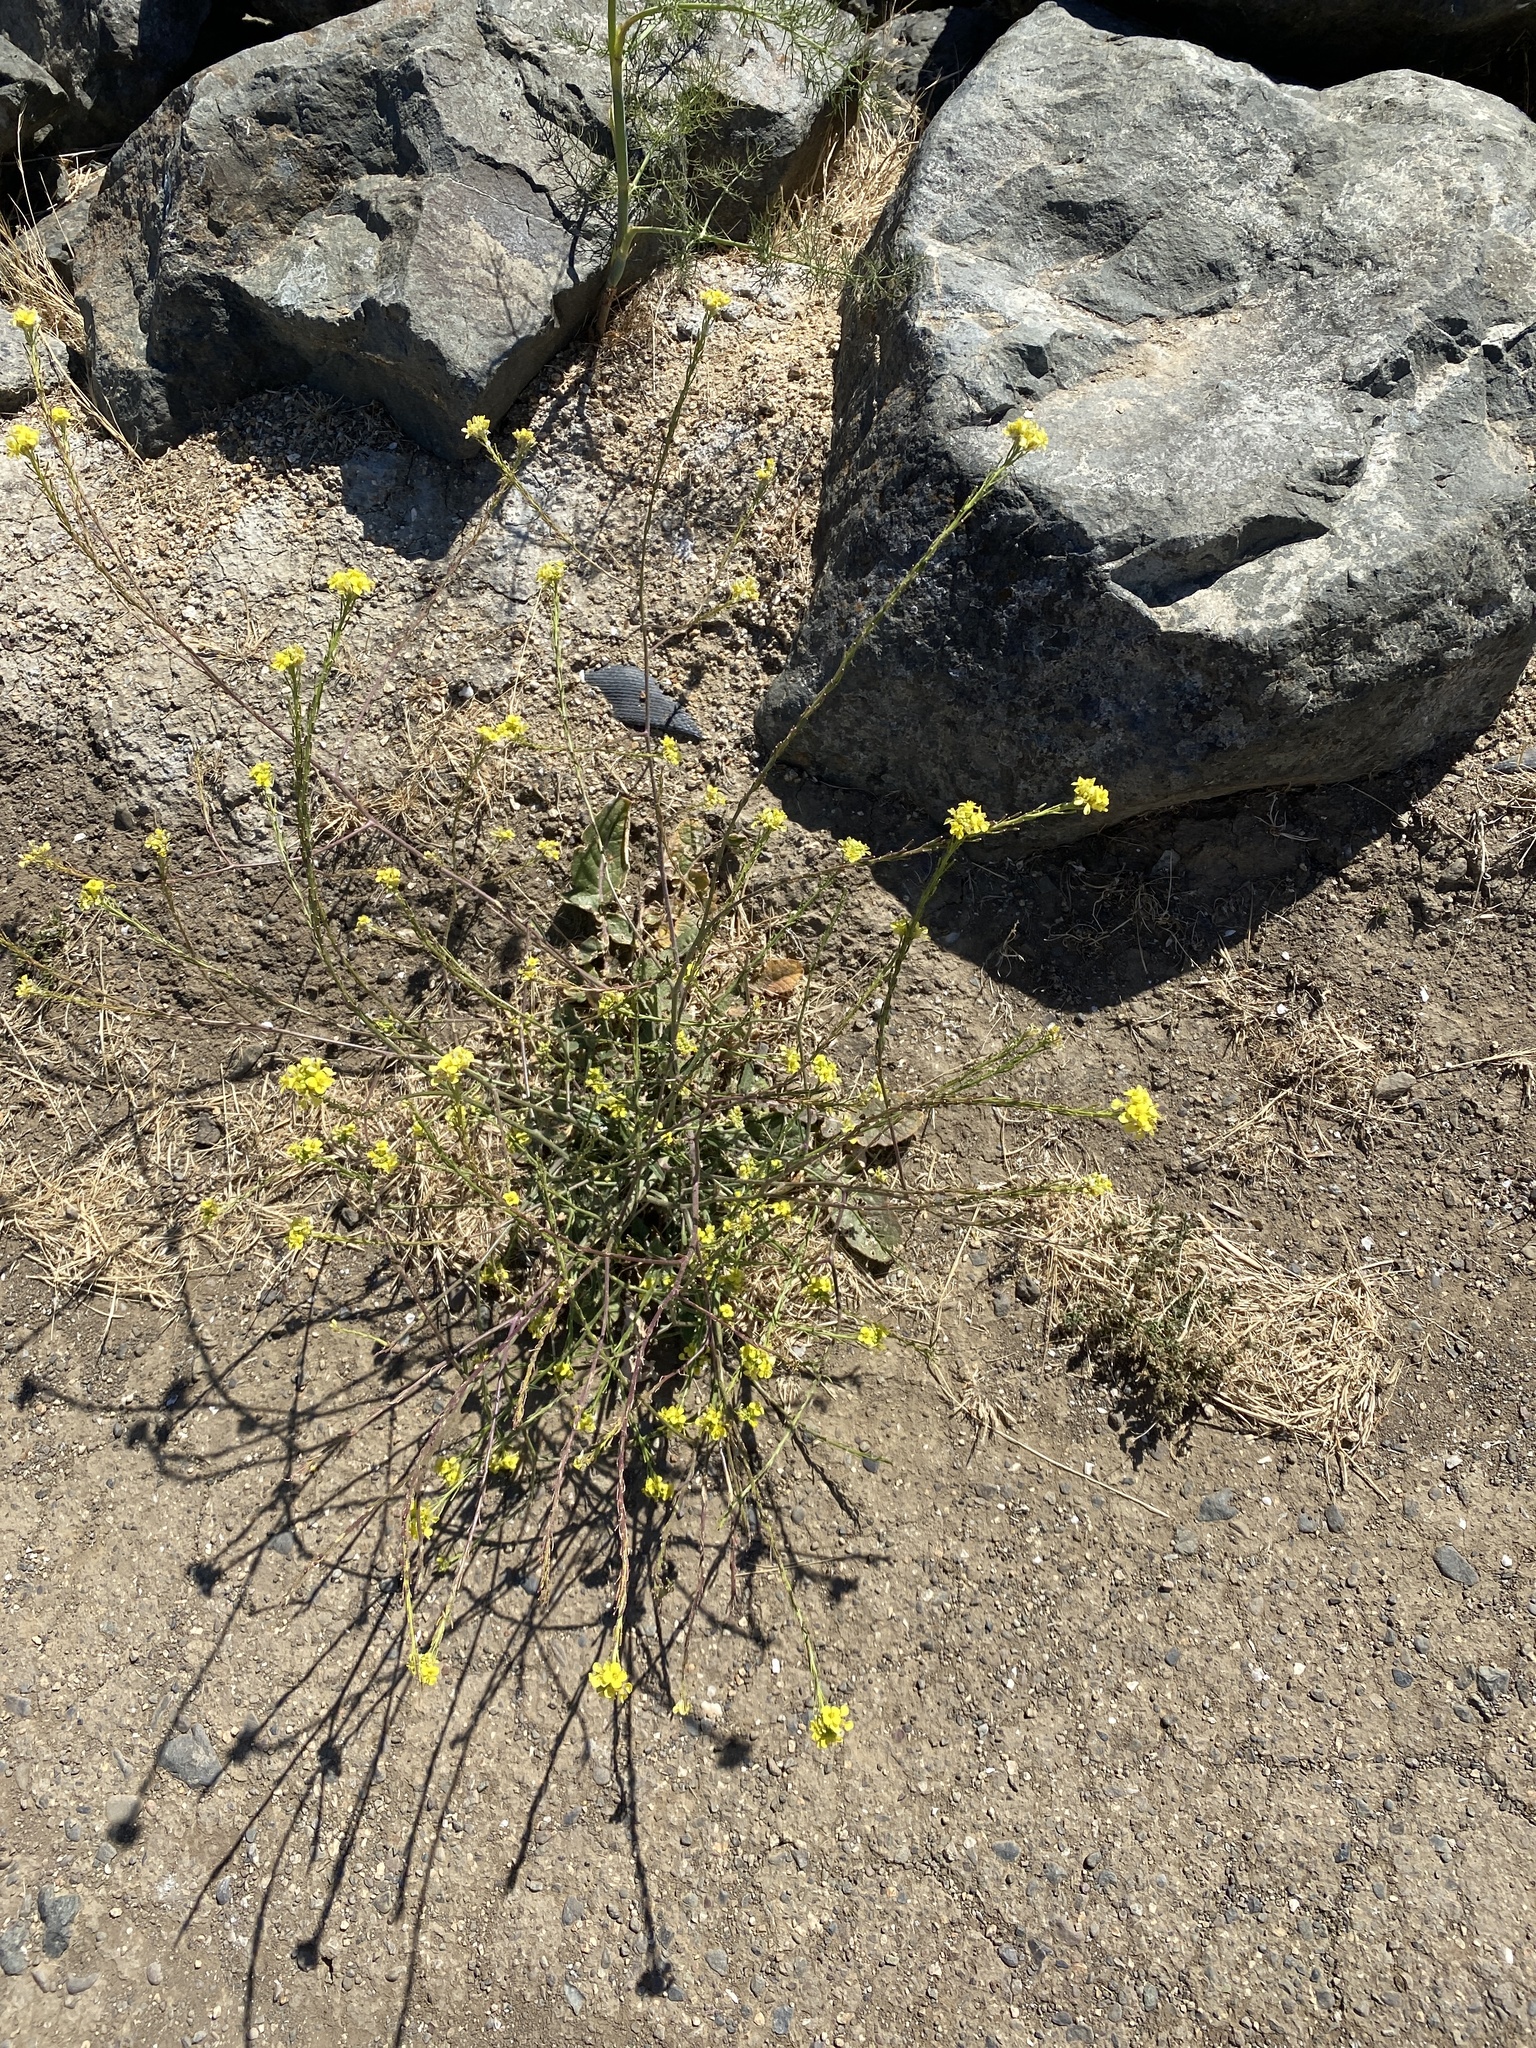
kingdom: Plantae
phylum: Tracheophyta
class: Magnoliopsida
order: Brassicales
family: Brassicaceae
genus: Hirschfeldia
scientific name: Hirschfeldia incana
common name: Hoary mustard
